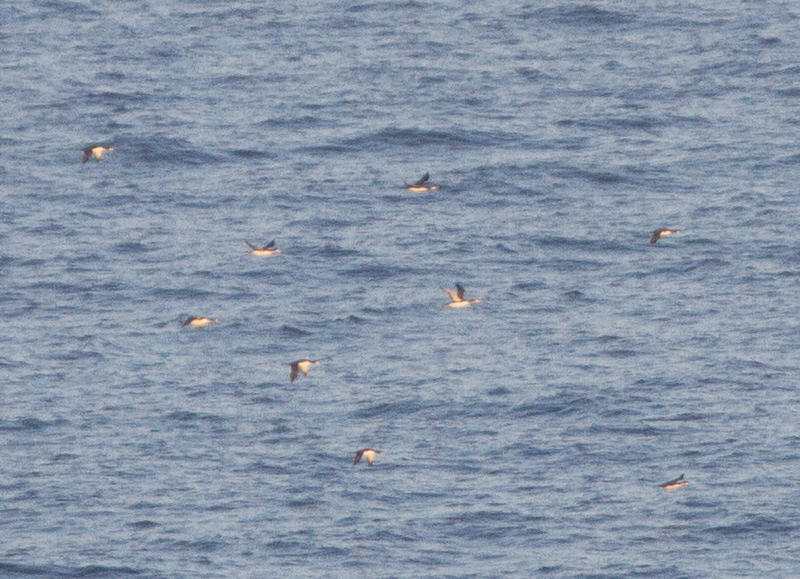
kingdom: Animalia
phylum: Chordata
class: Aves
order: Gaviiformes
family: Gaviidae
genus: Gavia
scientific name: Gavia pacifica
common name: Pacific loon
